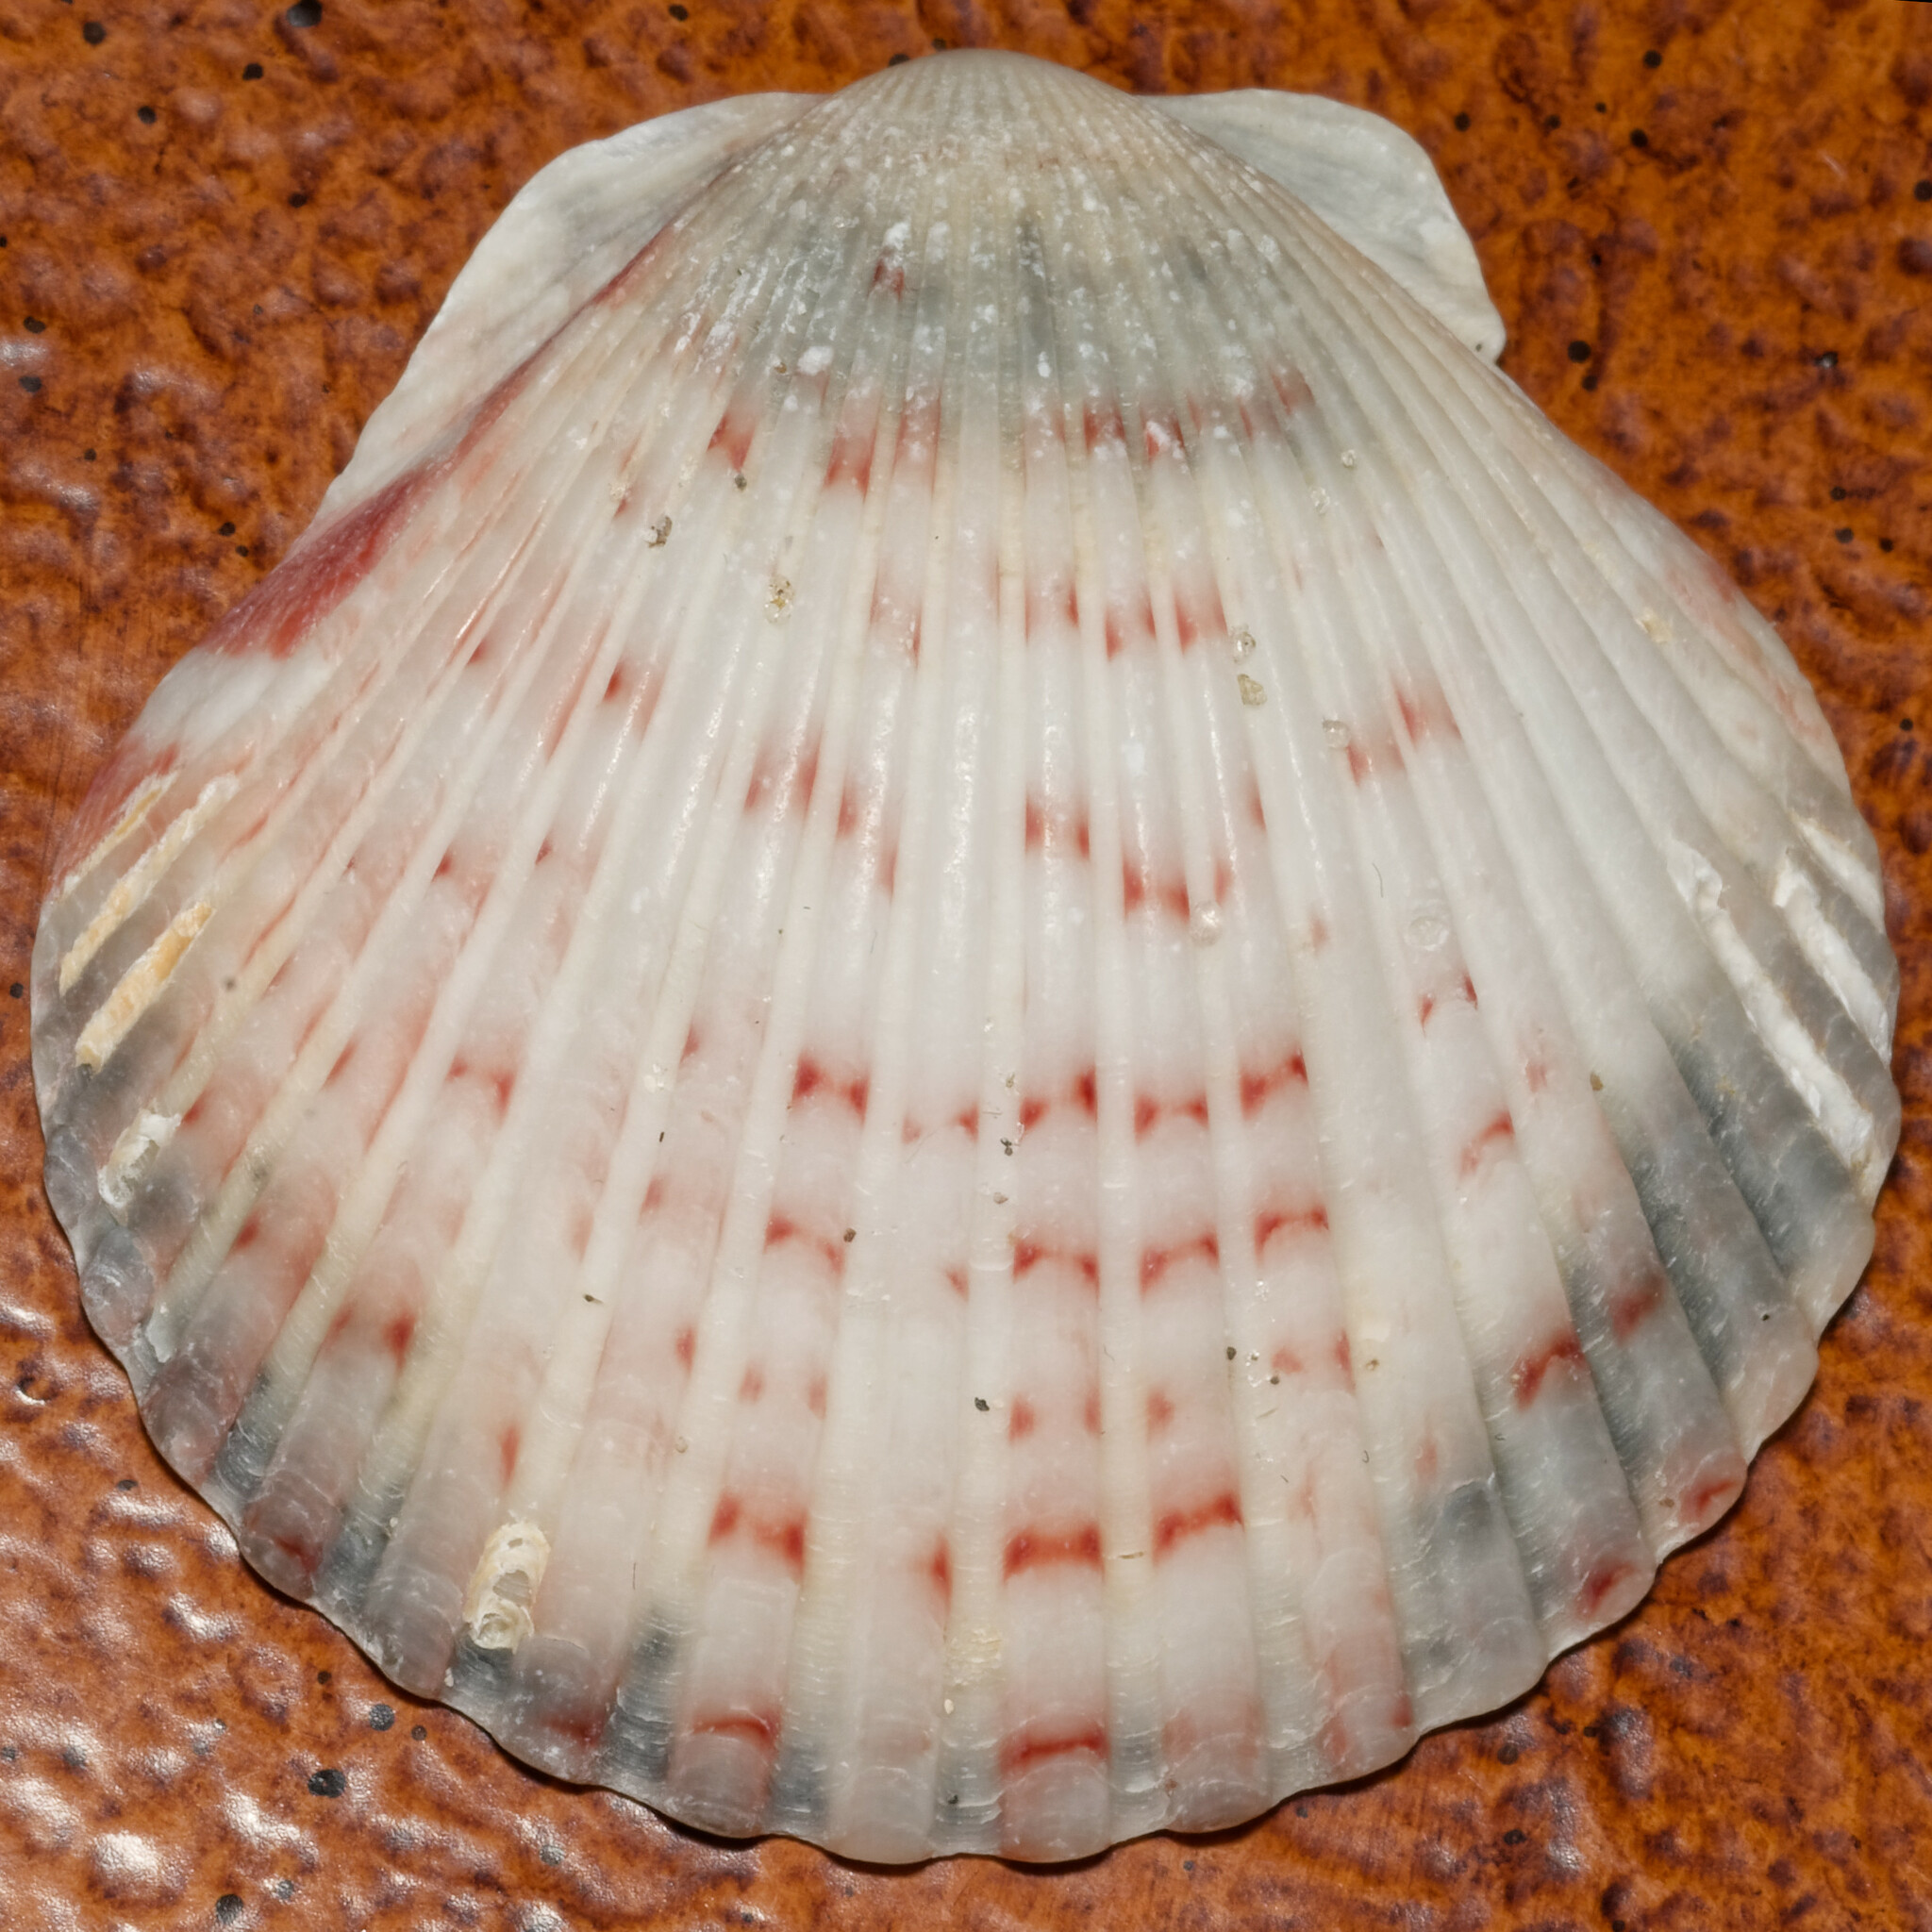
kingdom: Animalia
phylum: Mollusca
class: Bivalvia
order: Pectinida
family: Pectinidae
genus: Argopecten
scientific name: Argopecten gibbus
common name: Atlantic calico scallop
